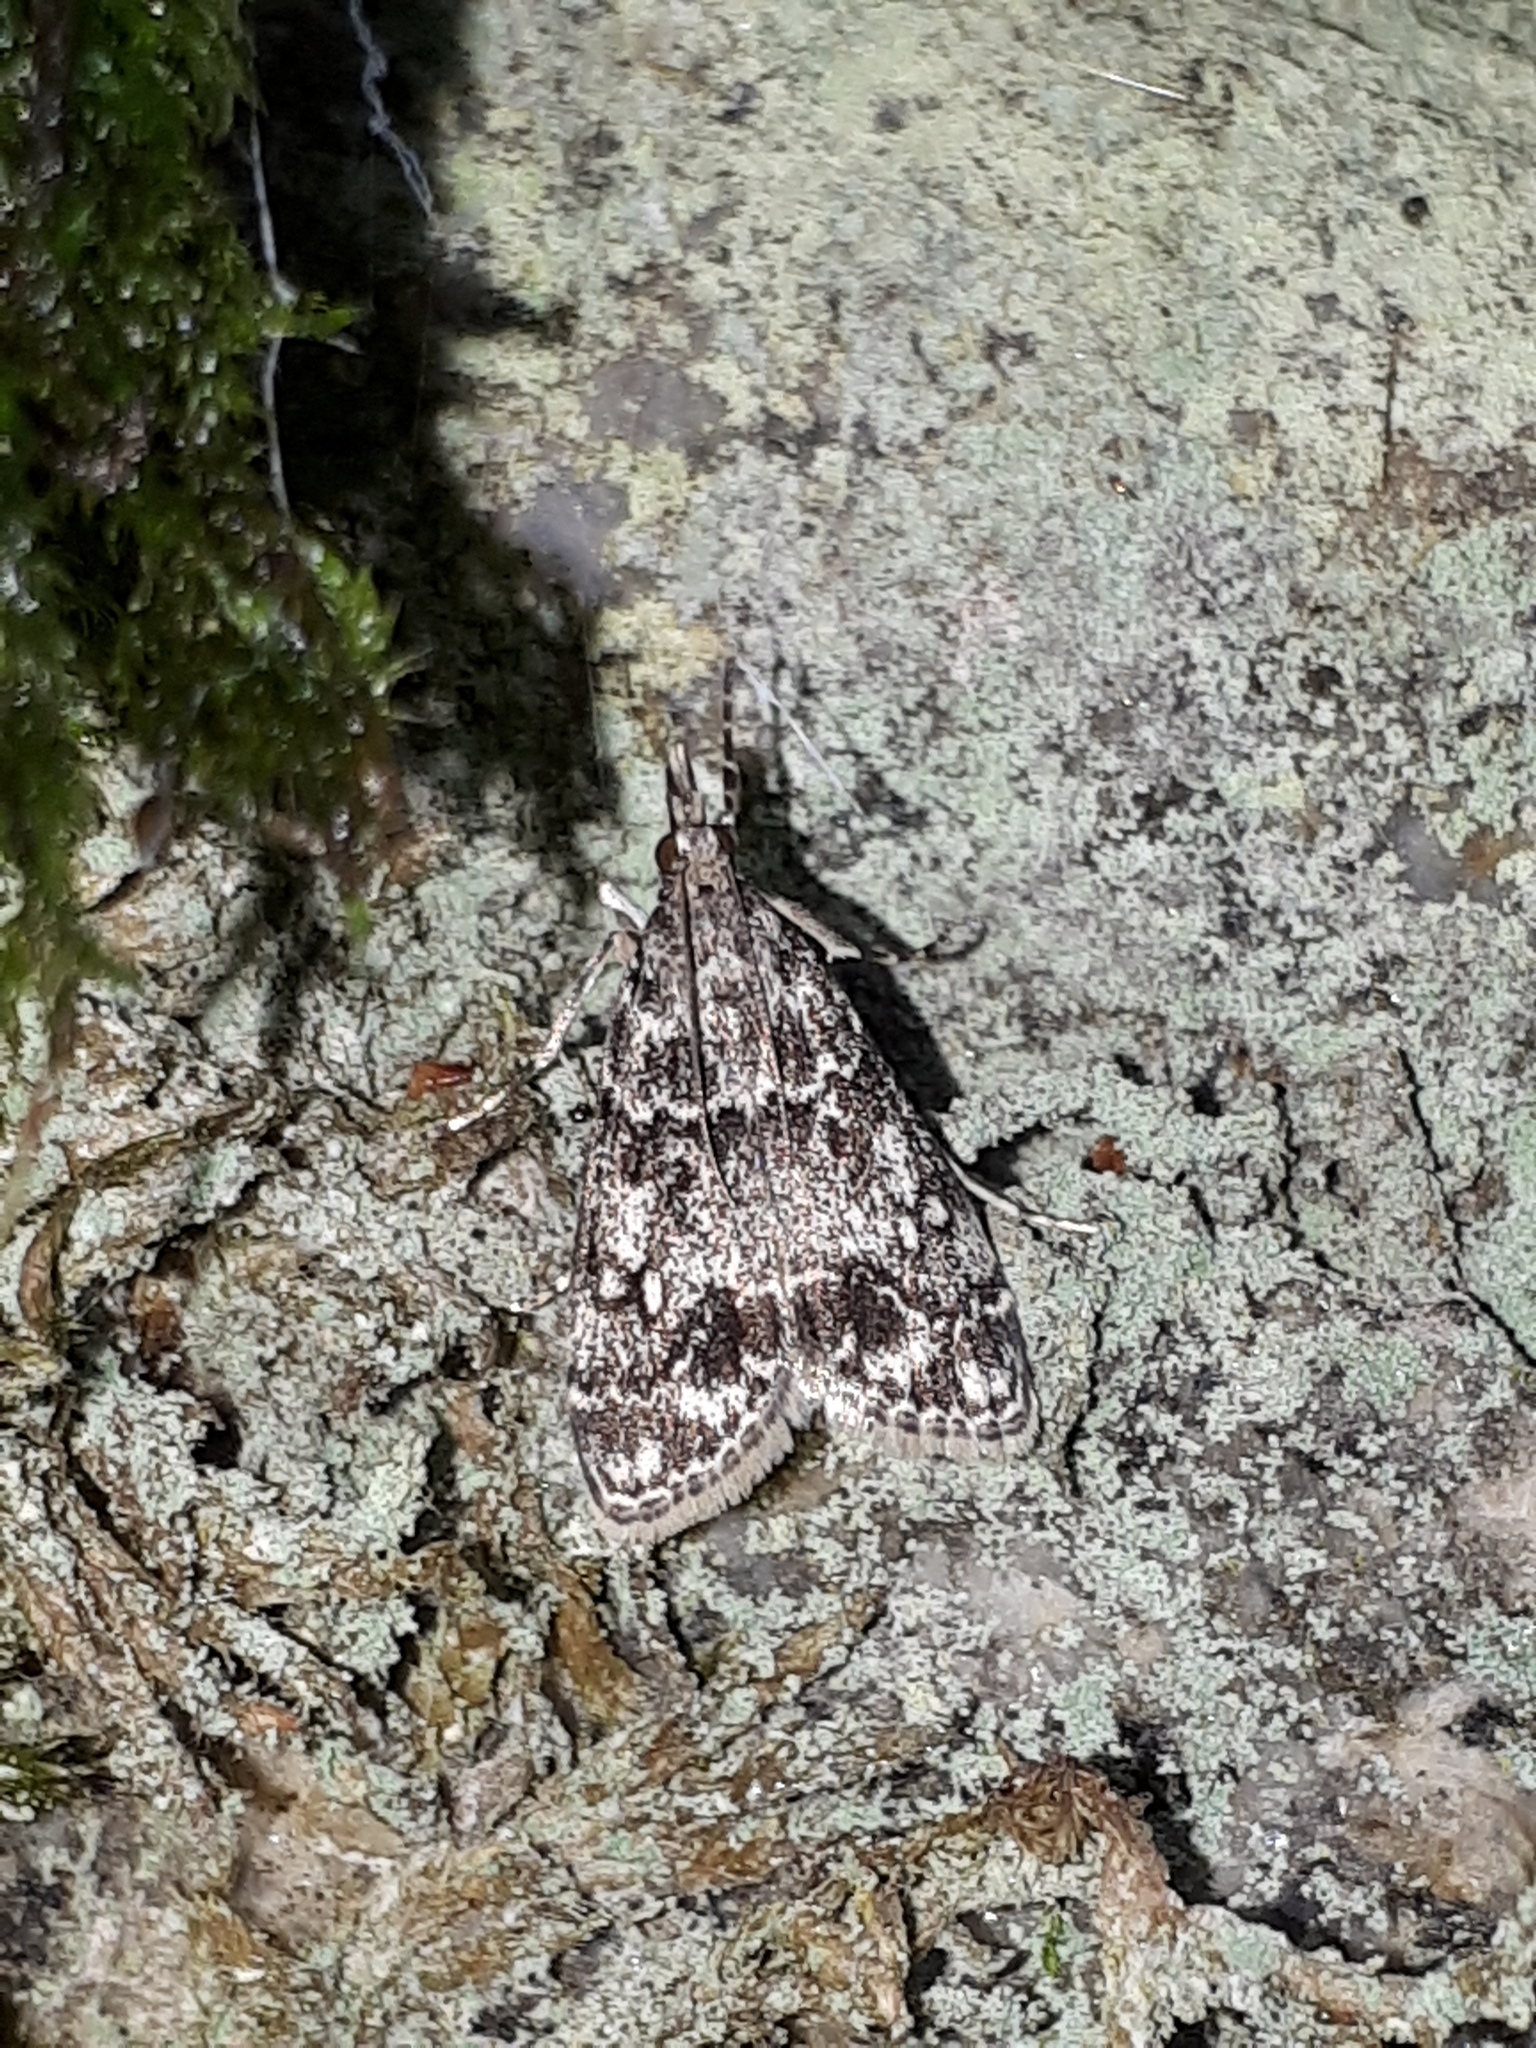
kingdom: Animalia
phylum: Arthropoda
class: Insecta
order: Lepidoptera
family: Crambidae
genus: Eudonia
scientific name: Eudonia lacustrata
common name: Little grey
